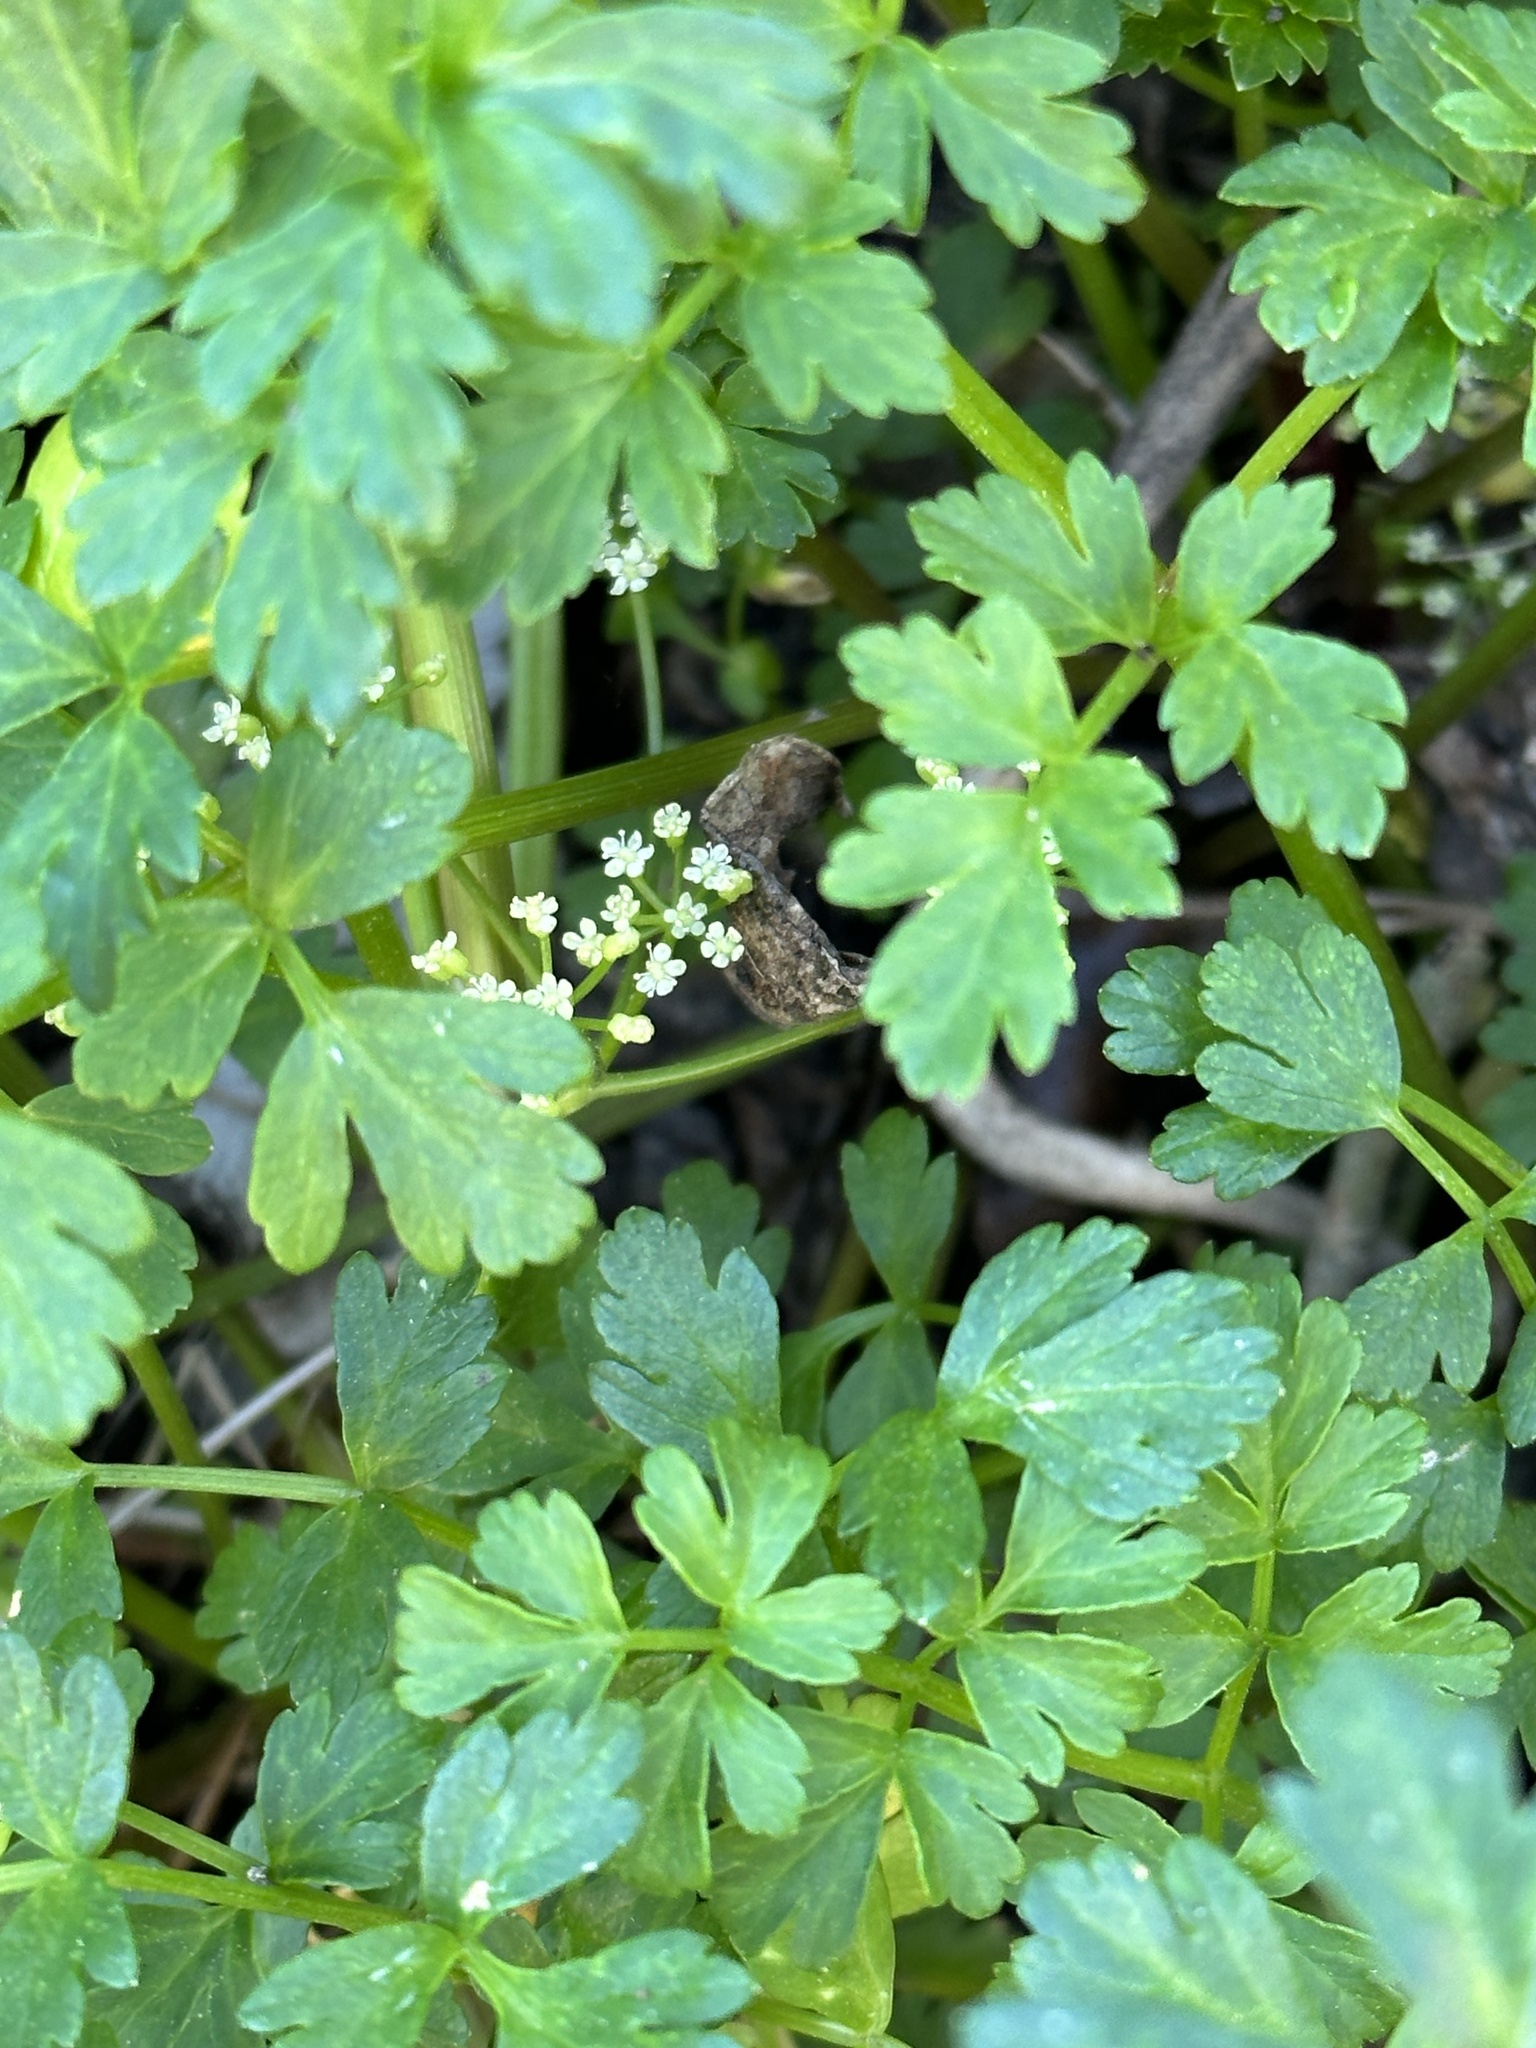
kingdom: Plantae
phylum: Tracheophyta
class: Magnoliopsida
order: Apiales
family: Apiaceae
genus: Apium
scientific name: Apium prostratum
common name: Prostrate marshwort
